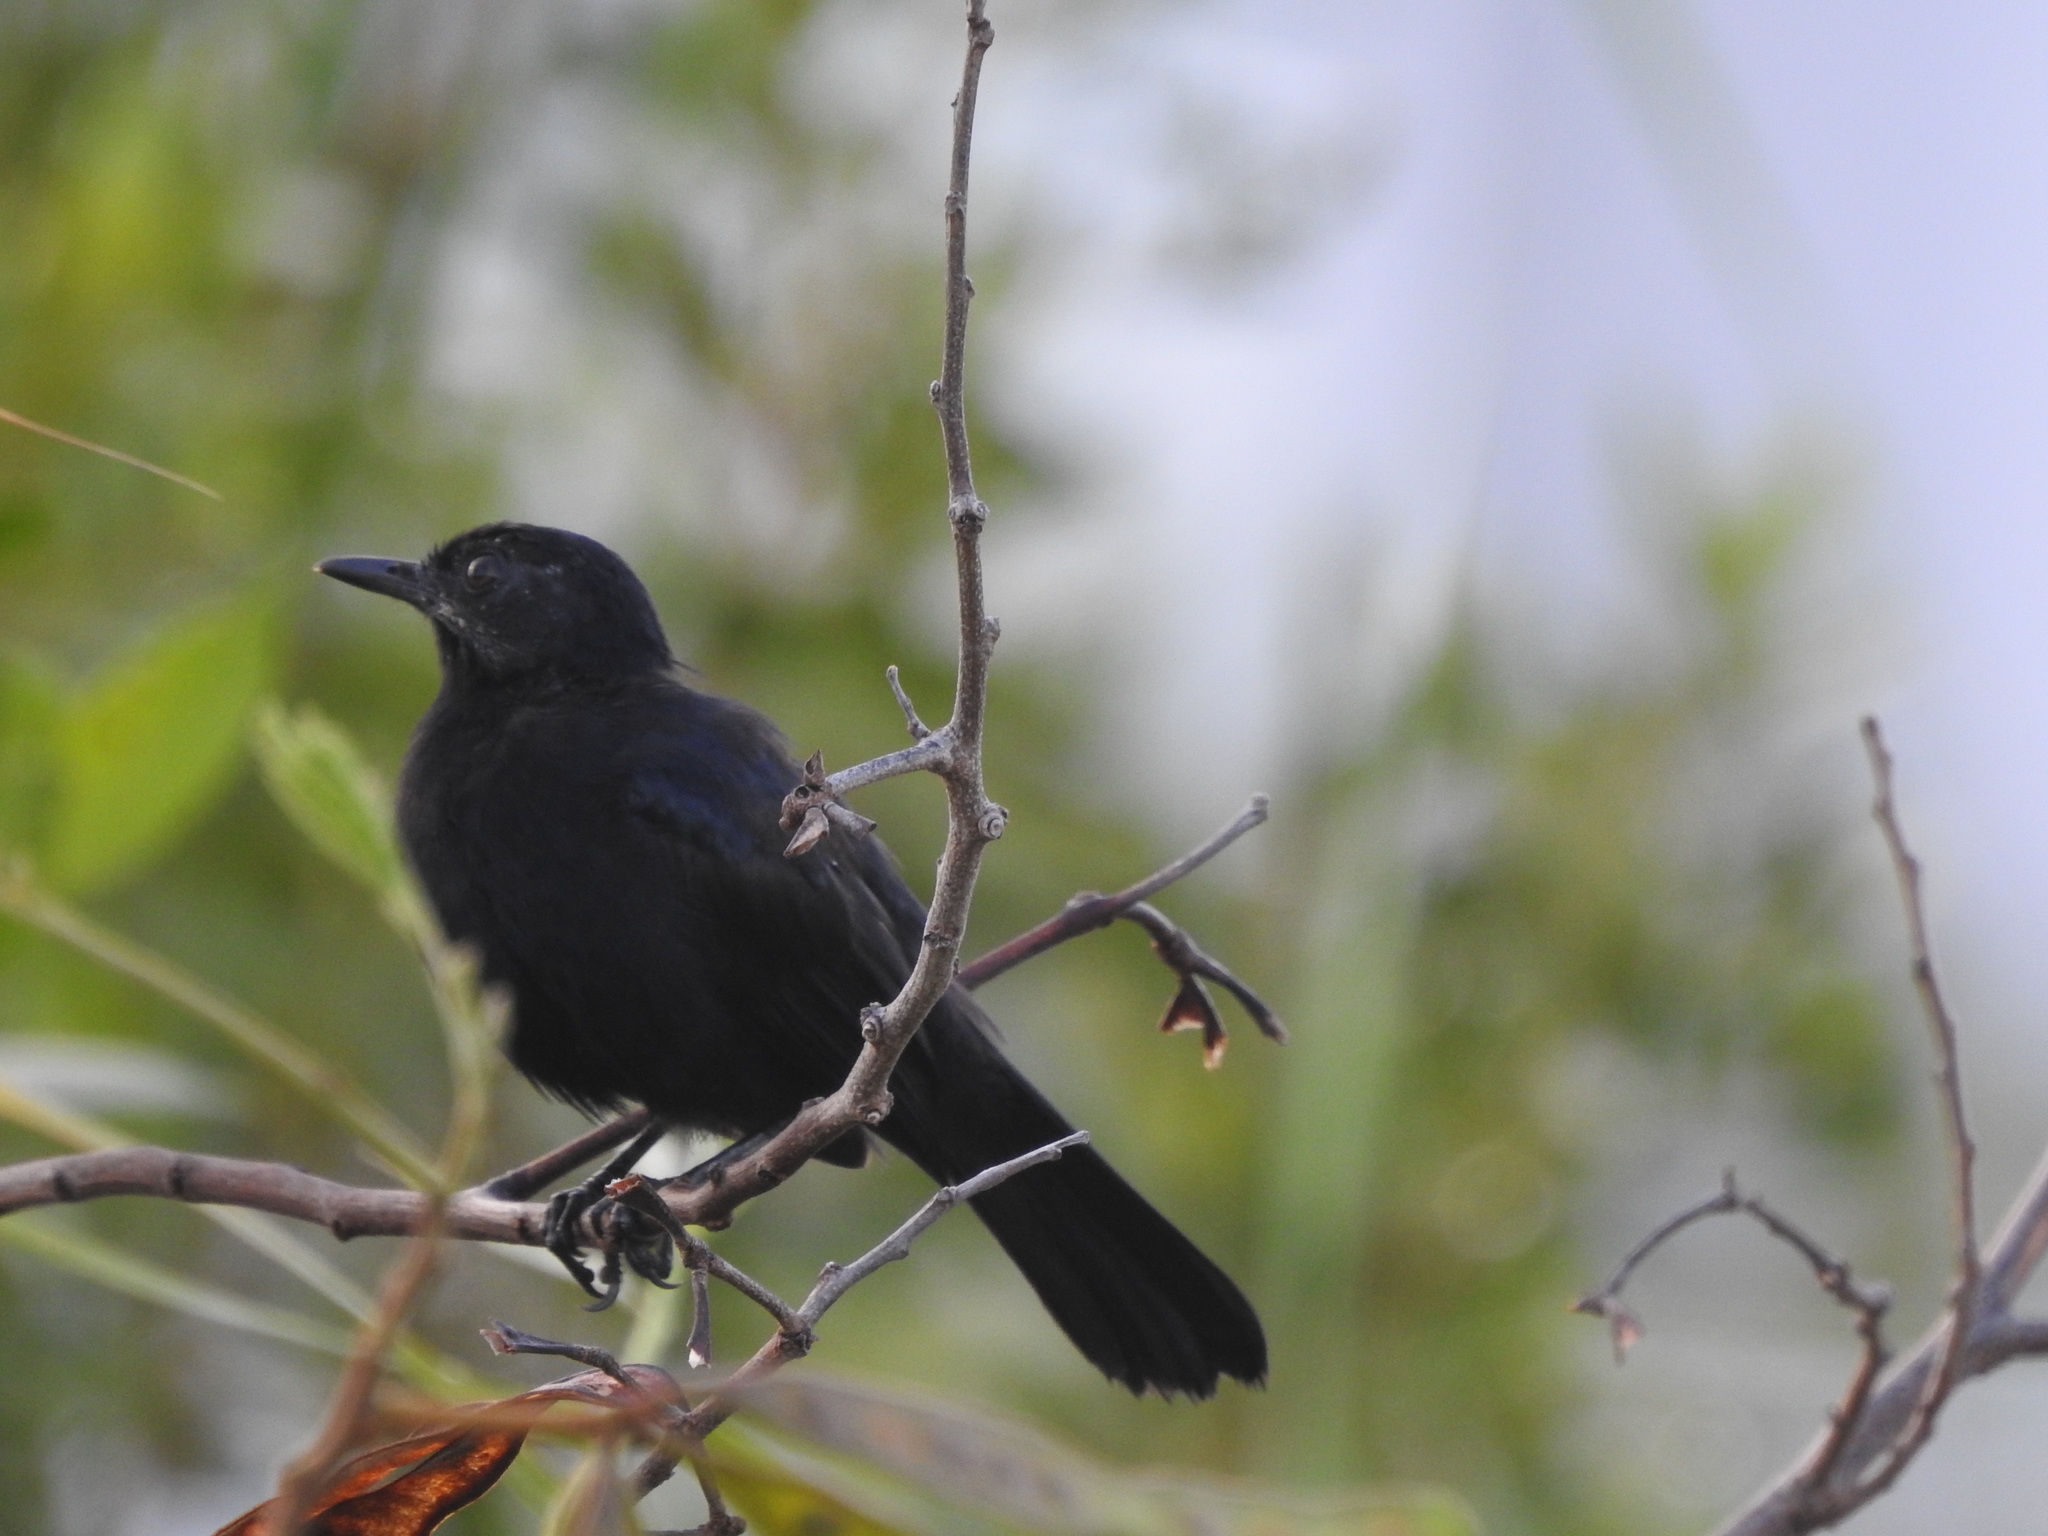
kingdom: Animalia
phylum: Chordata
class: Aves
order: Passeriformes
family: Mimidae
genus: Melanoptila
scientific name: Melanoptila glabrirostris
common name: Black catbird
